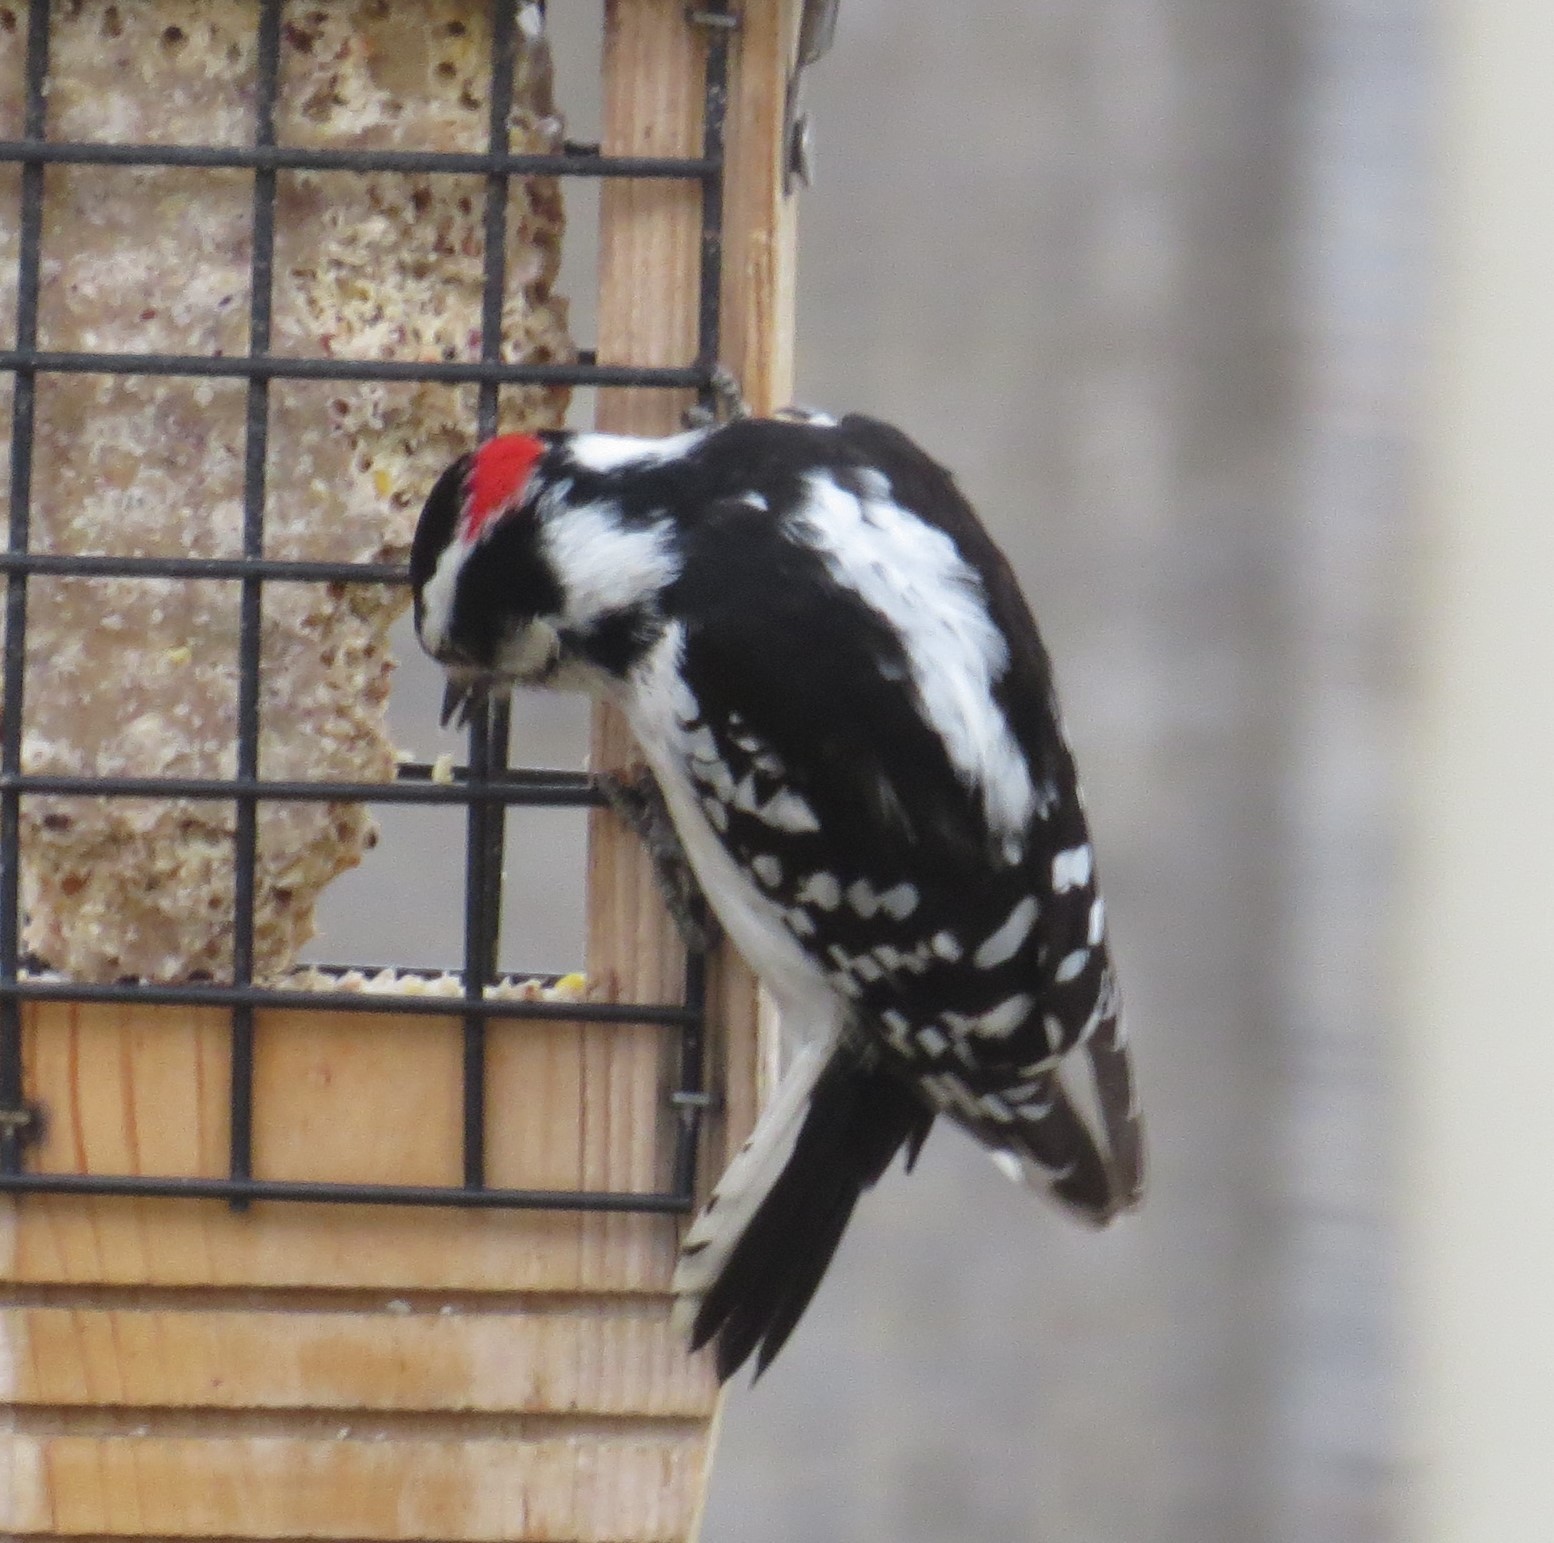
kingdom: Animalia
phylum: Chordata
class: Aves
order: Piciformes
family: Picidae
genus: Dryobates
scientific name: Dryobates pubescens
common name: Downy woodpecker
